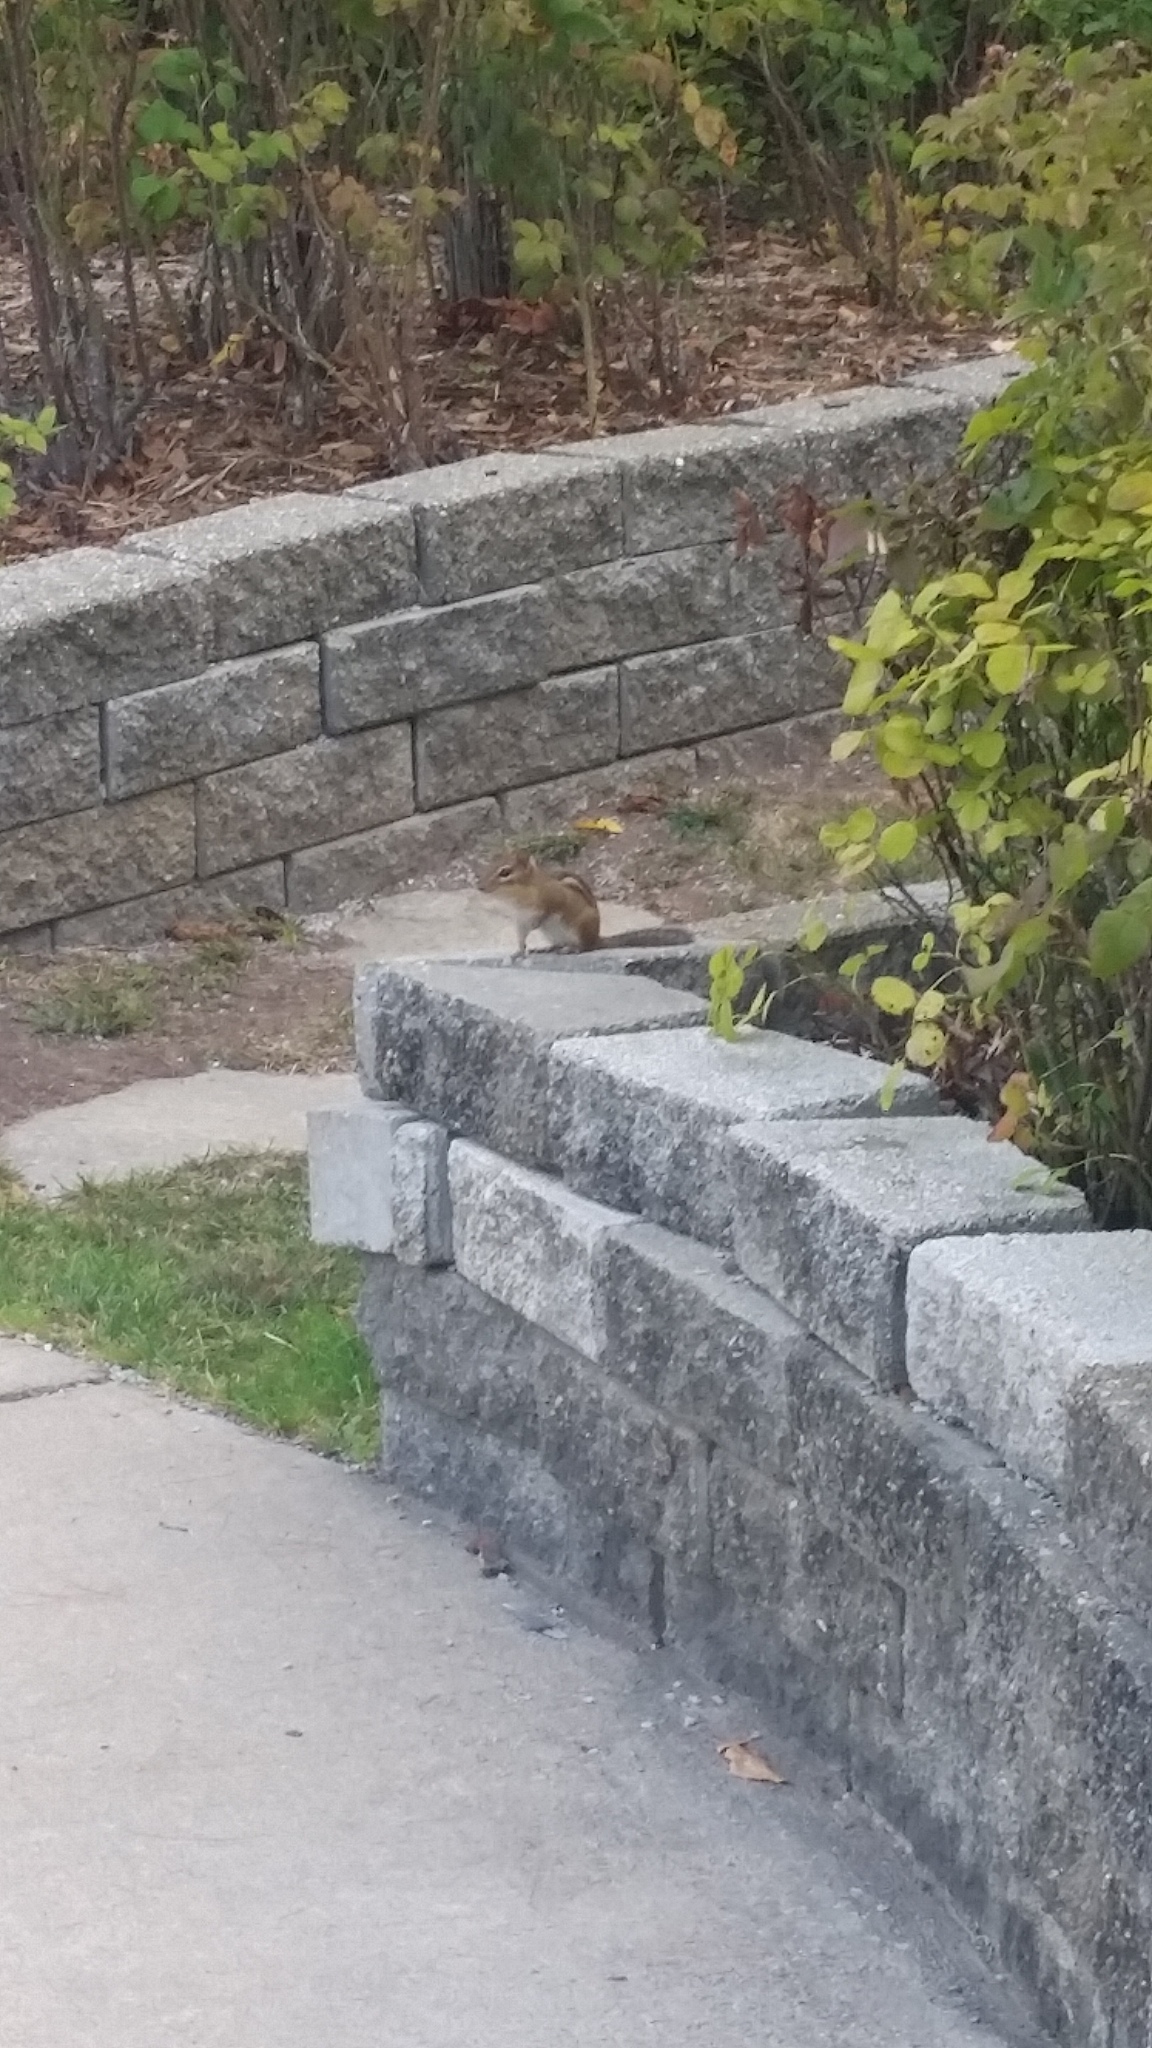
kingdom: Animalia
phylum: Chordata
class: Mammalia
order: Rodentia
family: Sciuridae
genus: Tamias
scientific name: Tamias striatus
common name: Eastern chipmunk
